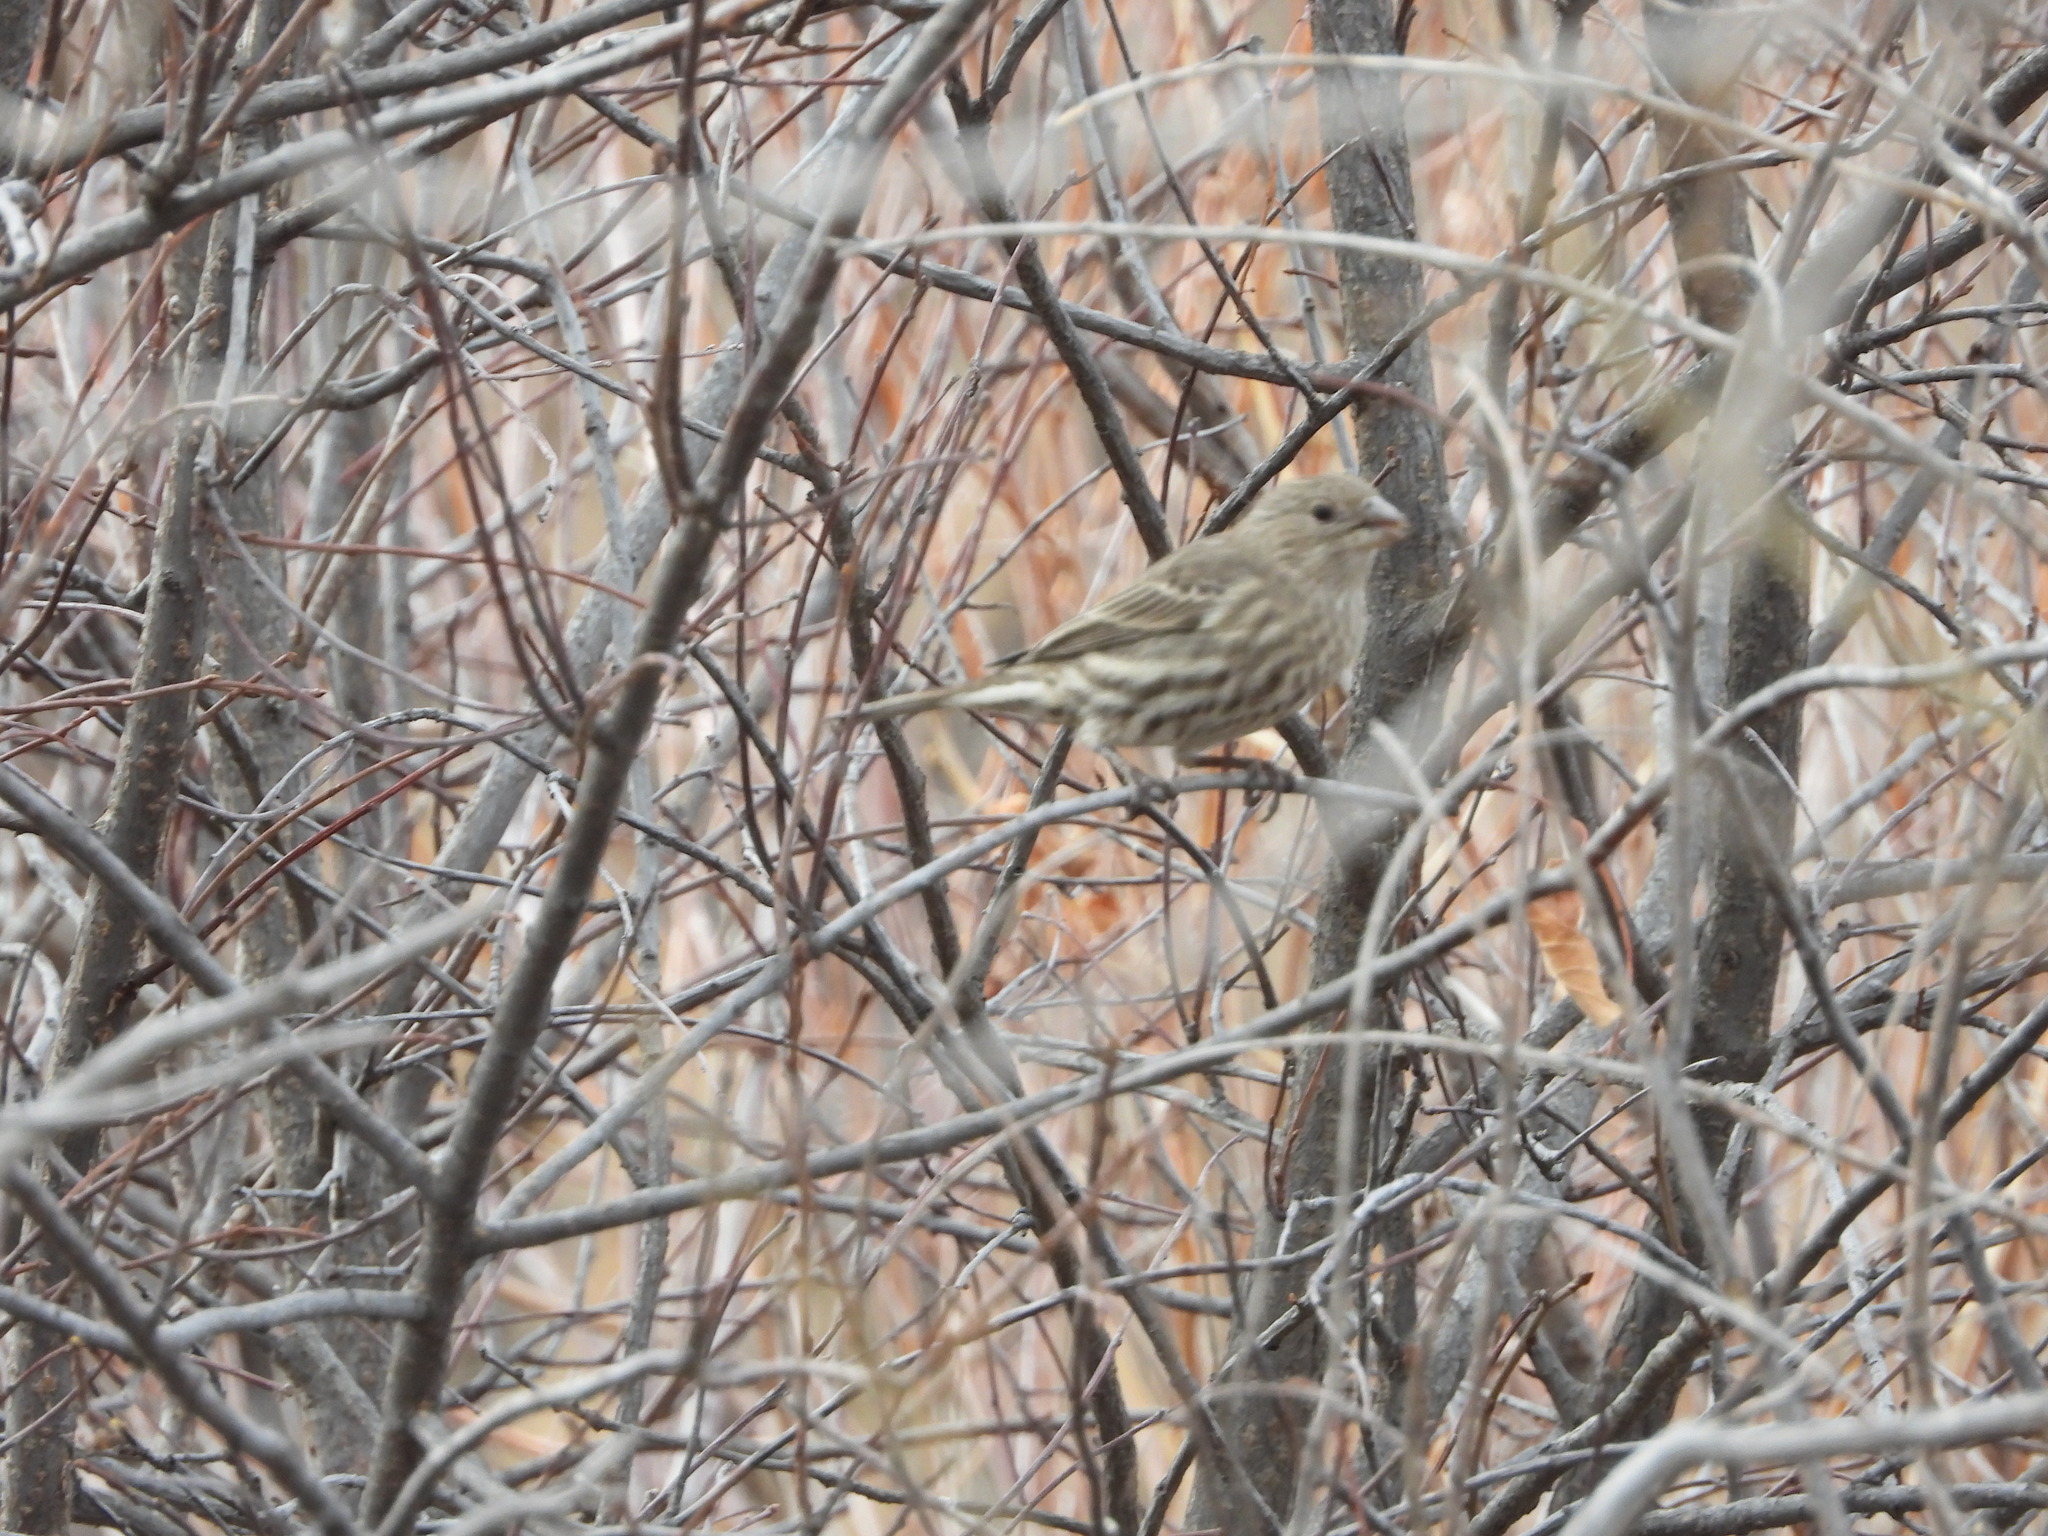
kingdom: Animalia
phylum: Chordata
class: Aves
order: Passeriformes
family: Fringillidae
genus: Haemorhous
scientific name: Haemorhous mexicanus
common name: House finch
